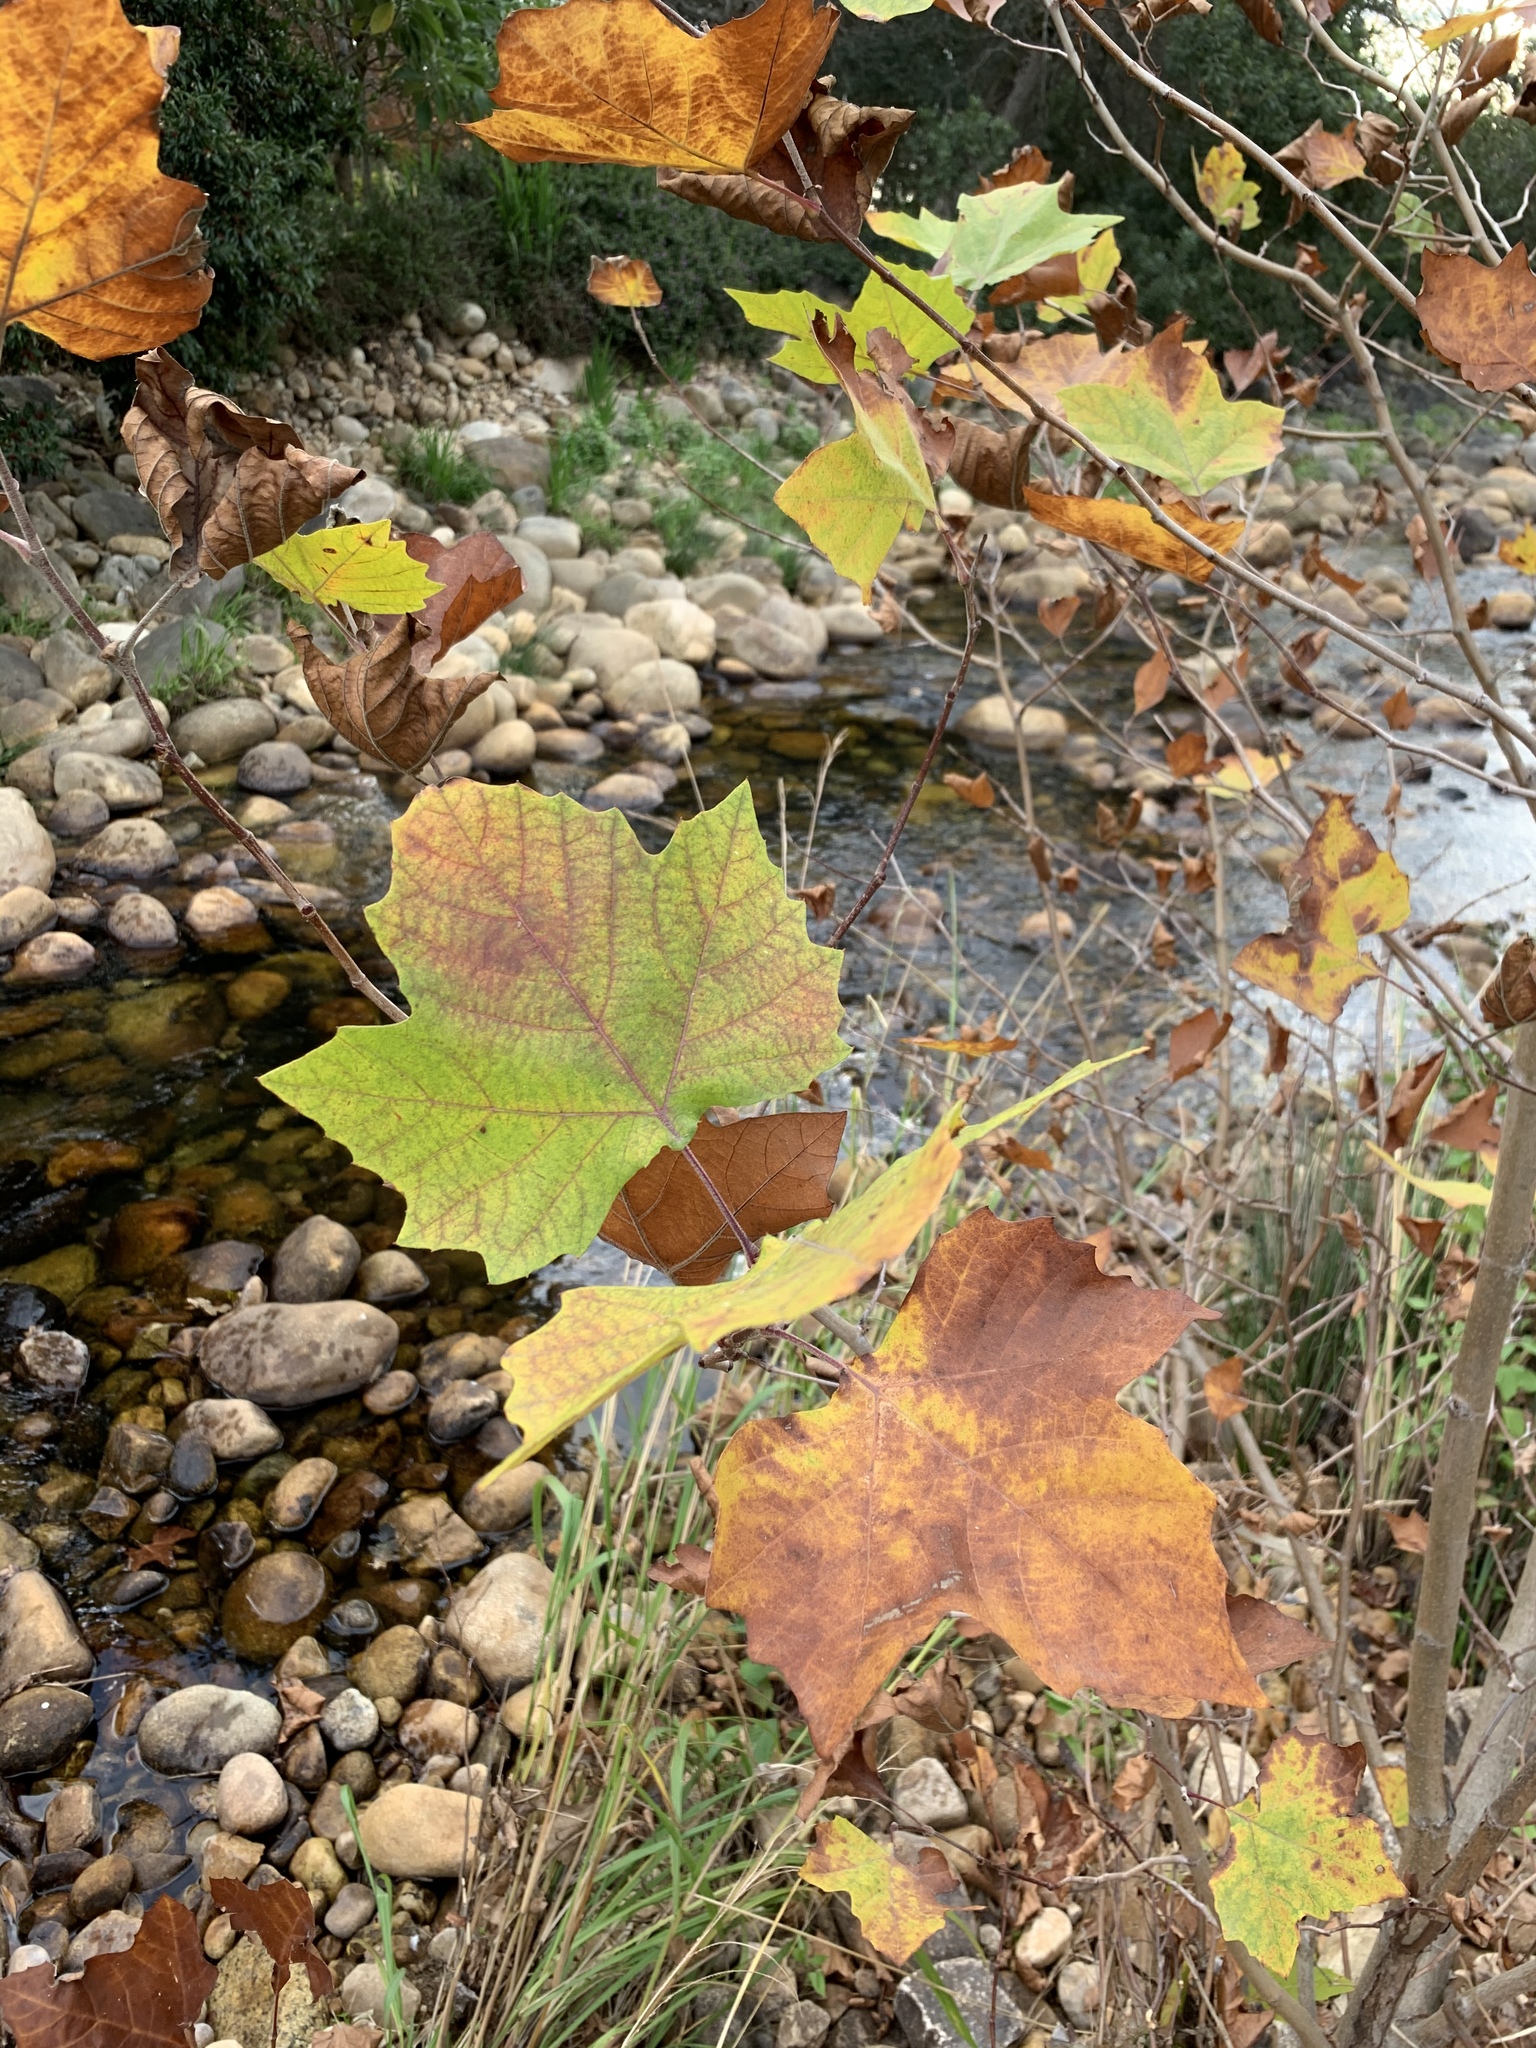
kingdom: Plantae
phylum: Tracheophyta
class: Magnoliopsida
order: Proteales
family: Platanaceae
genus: Platanus
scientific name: Platanus hispanica
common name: London plane
